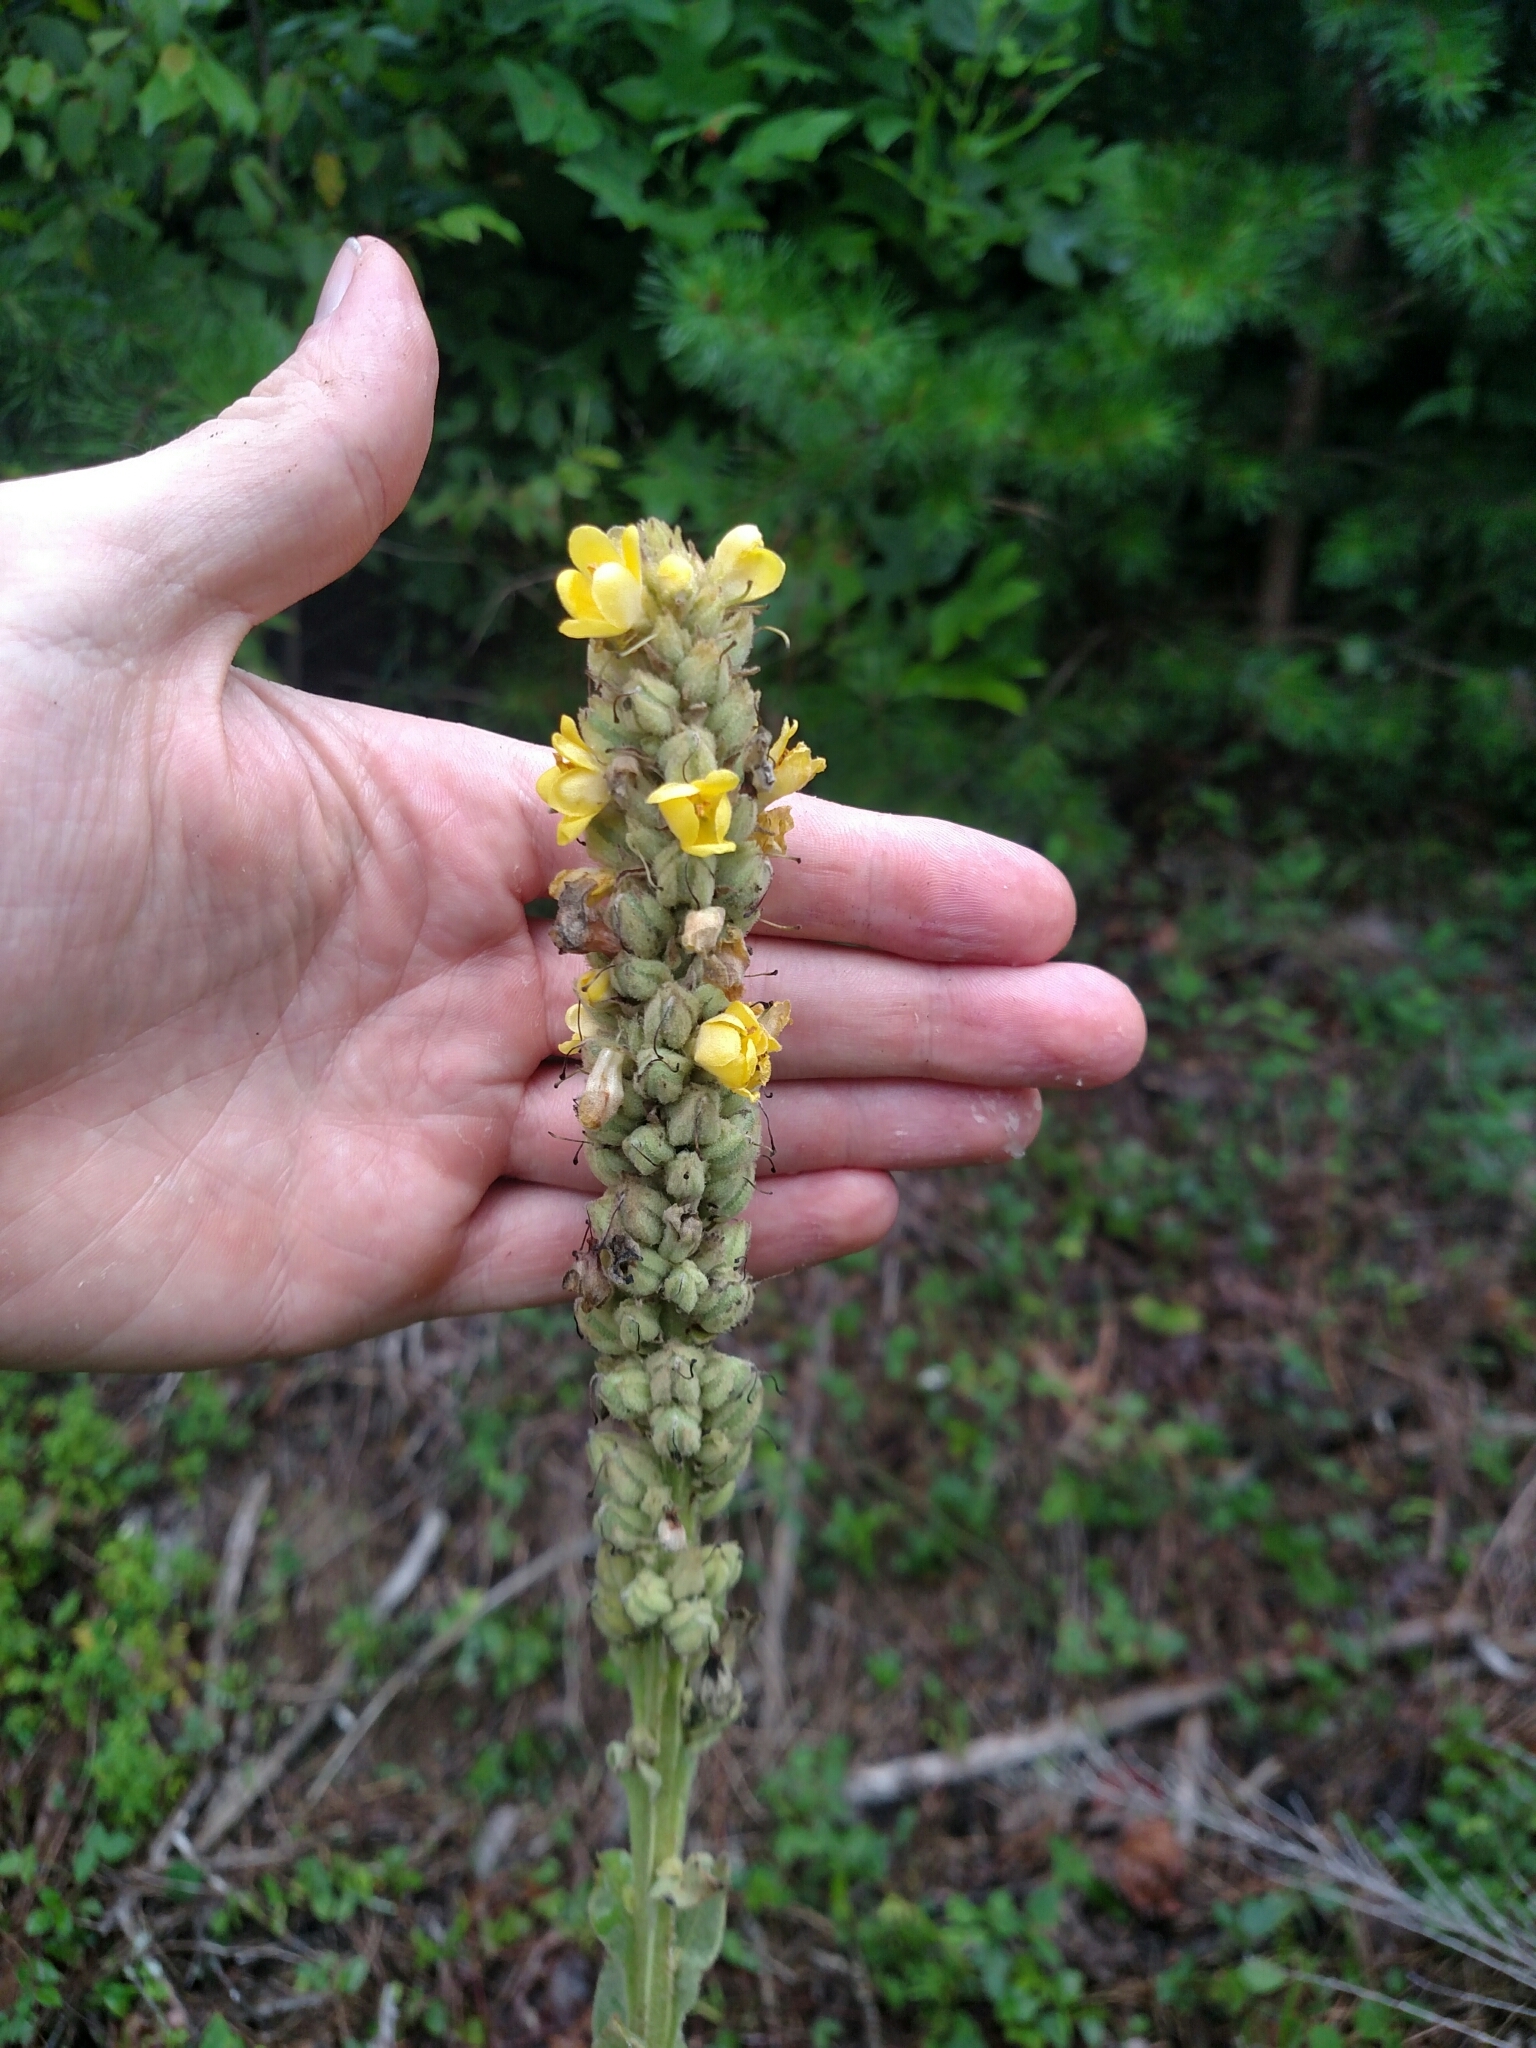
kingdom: Plantae
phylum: Tracheophyta
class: Magnoliopsida
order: Lamiales
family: Scrophulariaceae
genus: Verbascum
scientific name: Verbascum thapsus
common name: Common mullein
